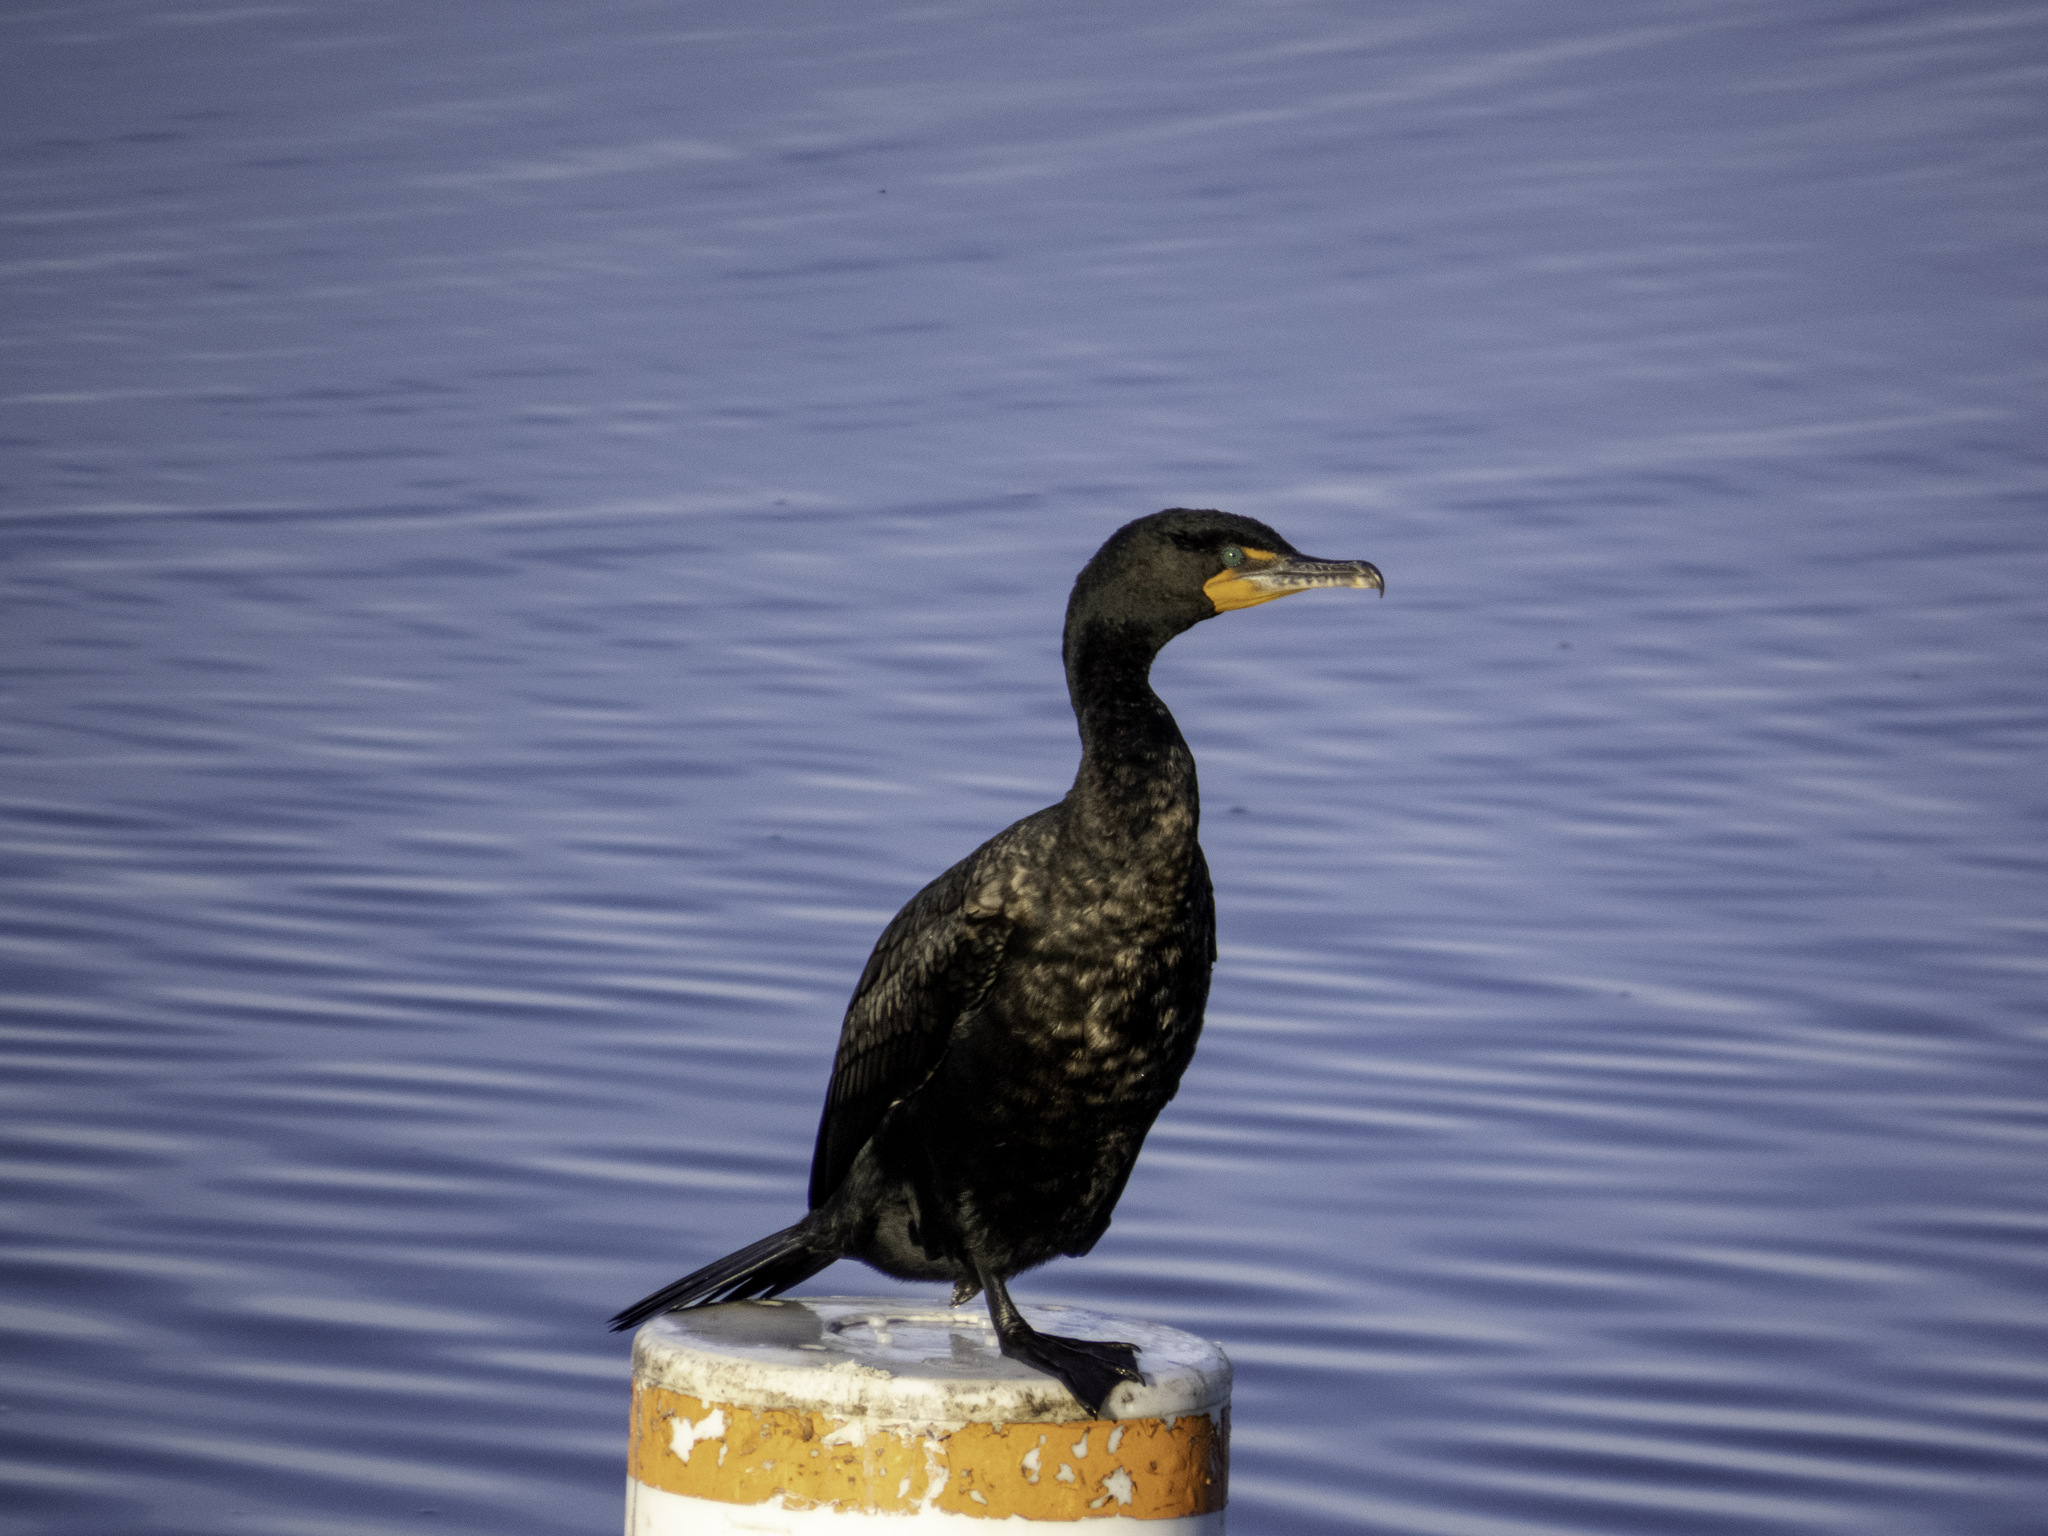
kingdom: Animalia
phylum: Chordata
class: Aves
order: Suliformes
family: Phalacrocoracidae
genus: Phalacrocorax
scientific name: Phalacrocorax auritus
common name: Double-crested cormorant
